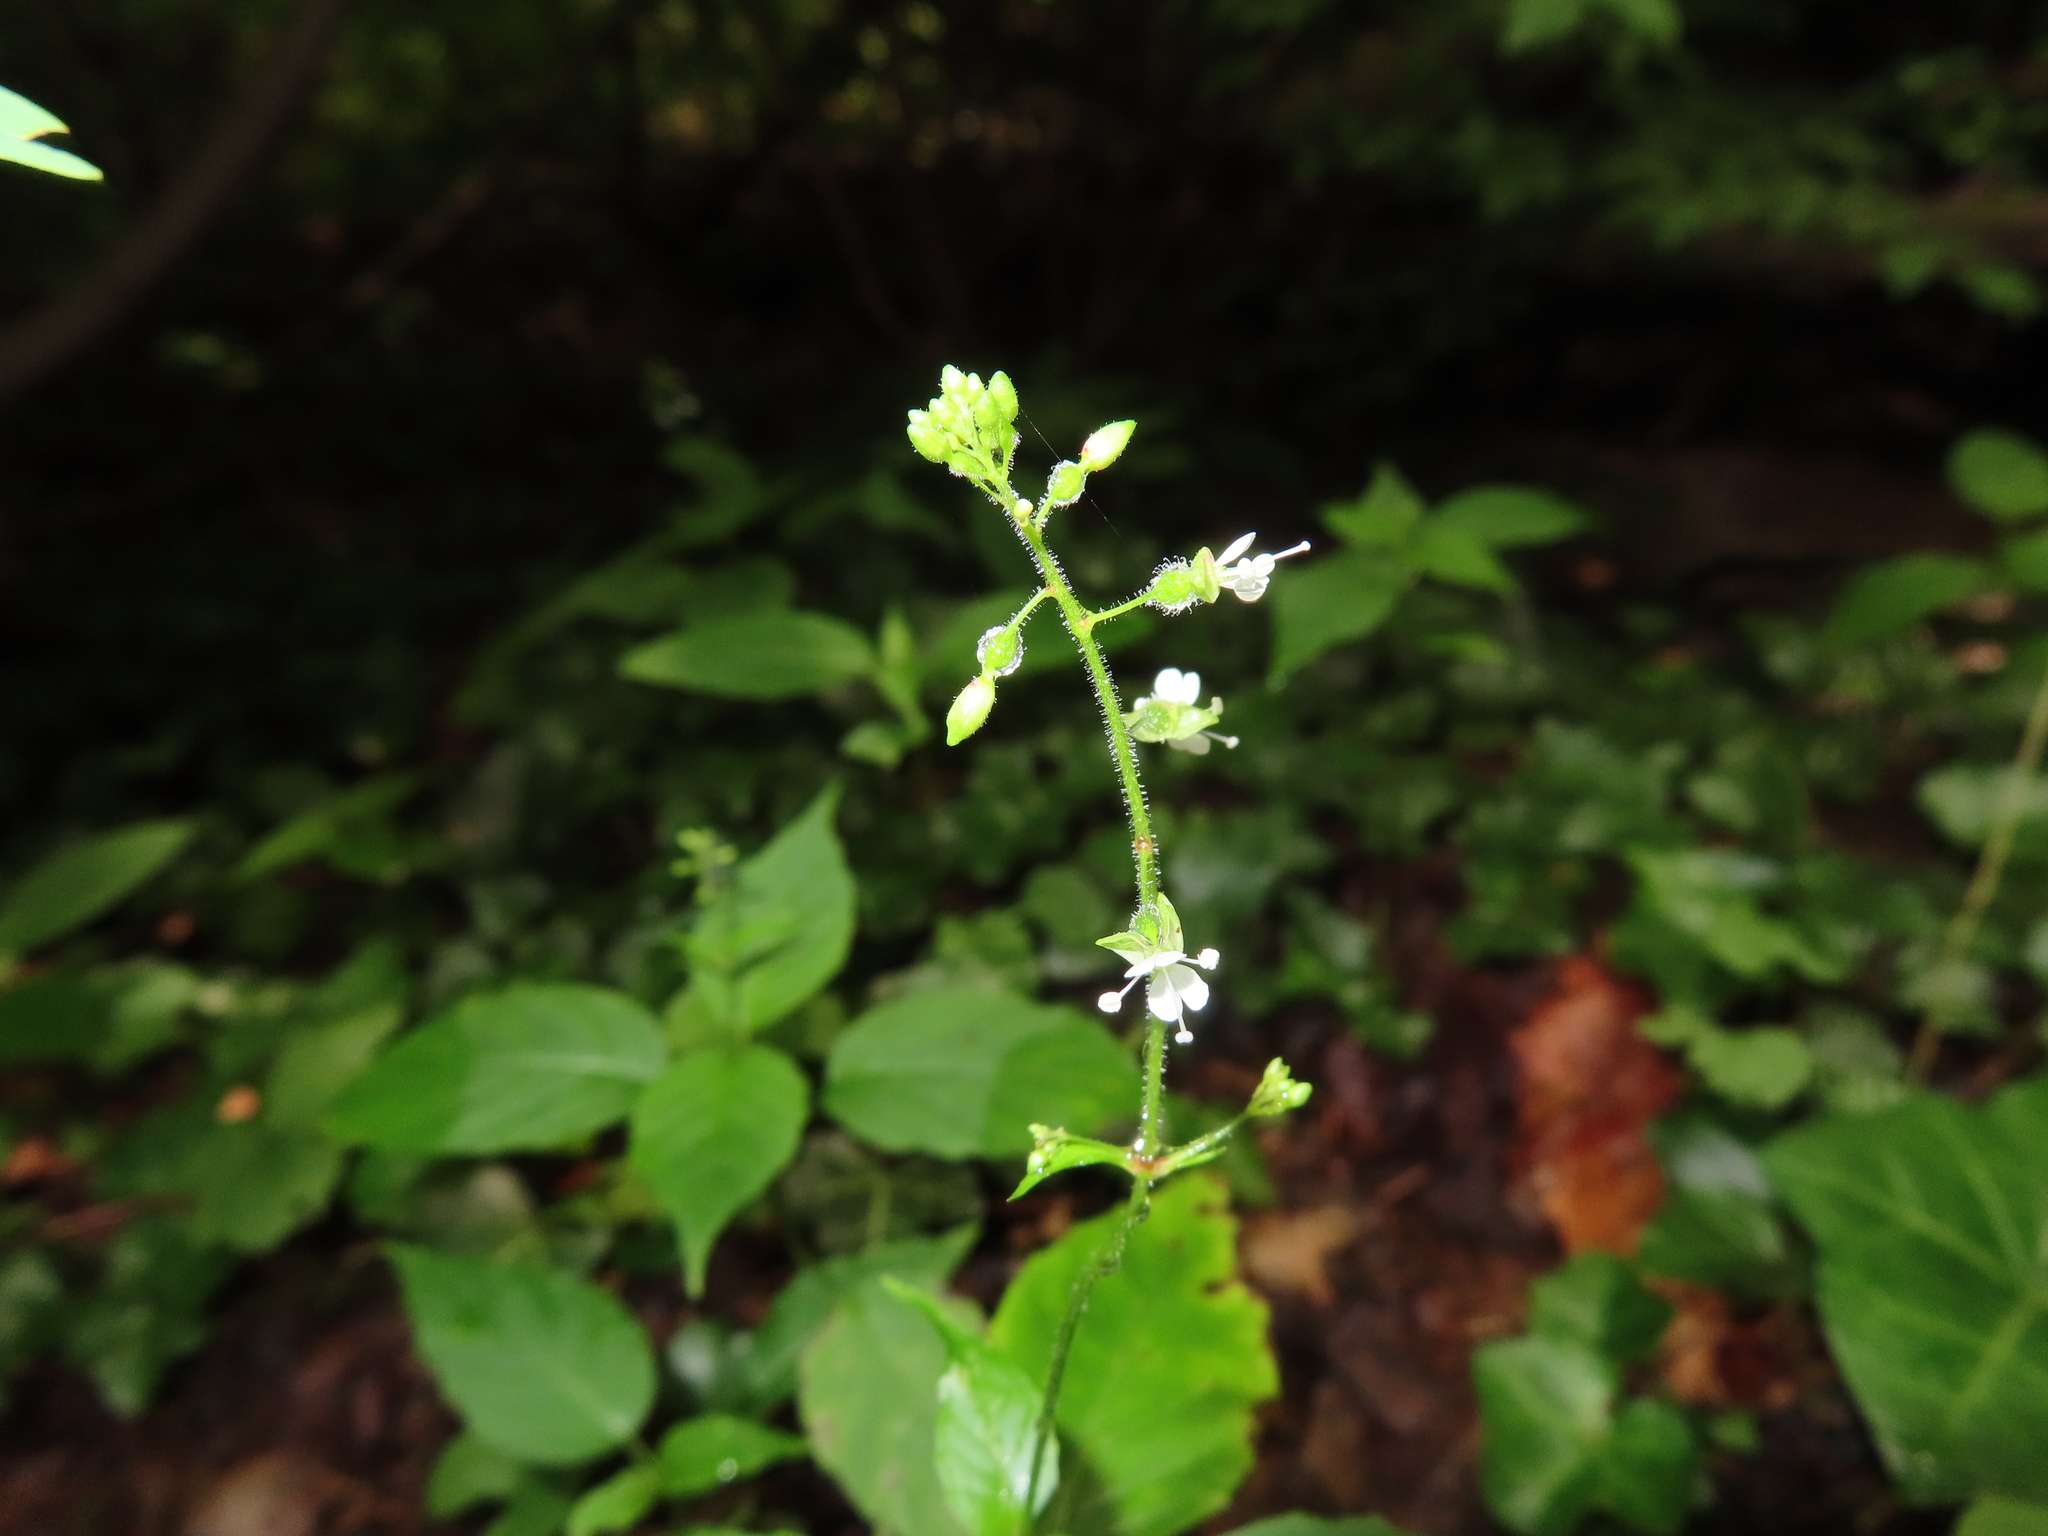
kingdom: Plantae
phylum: Tracheophyta
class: Magnoliopsida
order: Myrtales
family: Onagraceae
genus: Circaea
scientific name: Circaea canadensis
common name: Broad-leaved enchanter's nightshade
